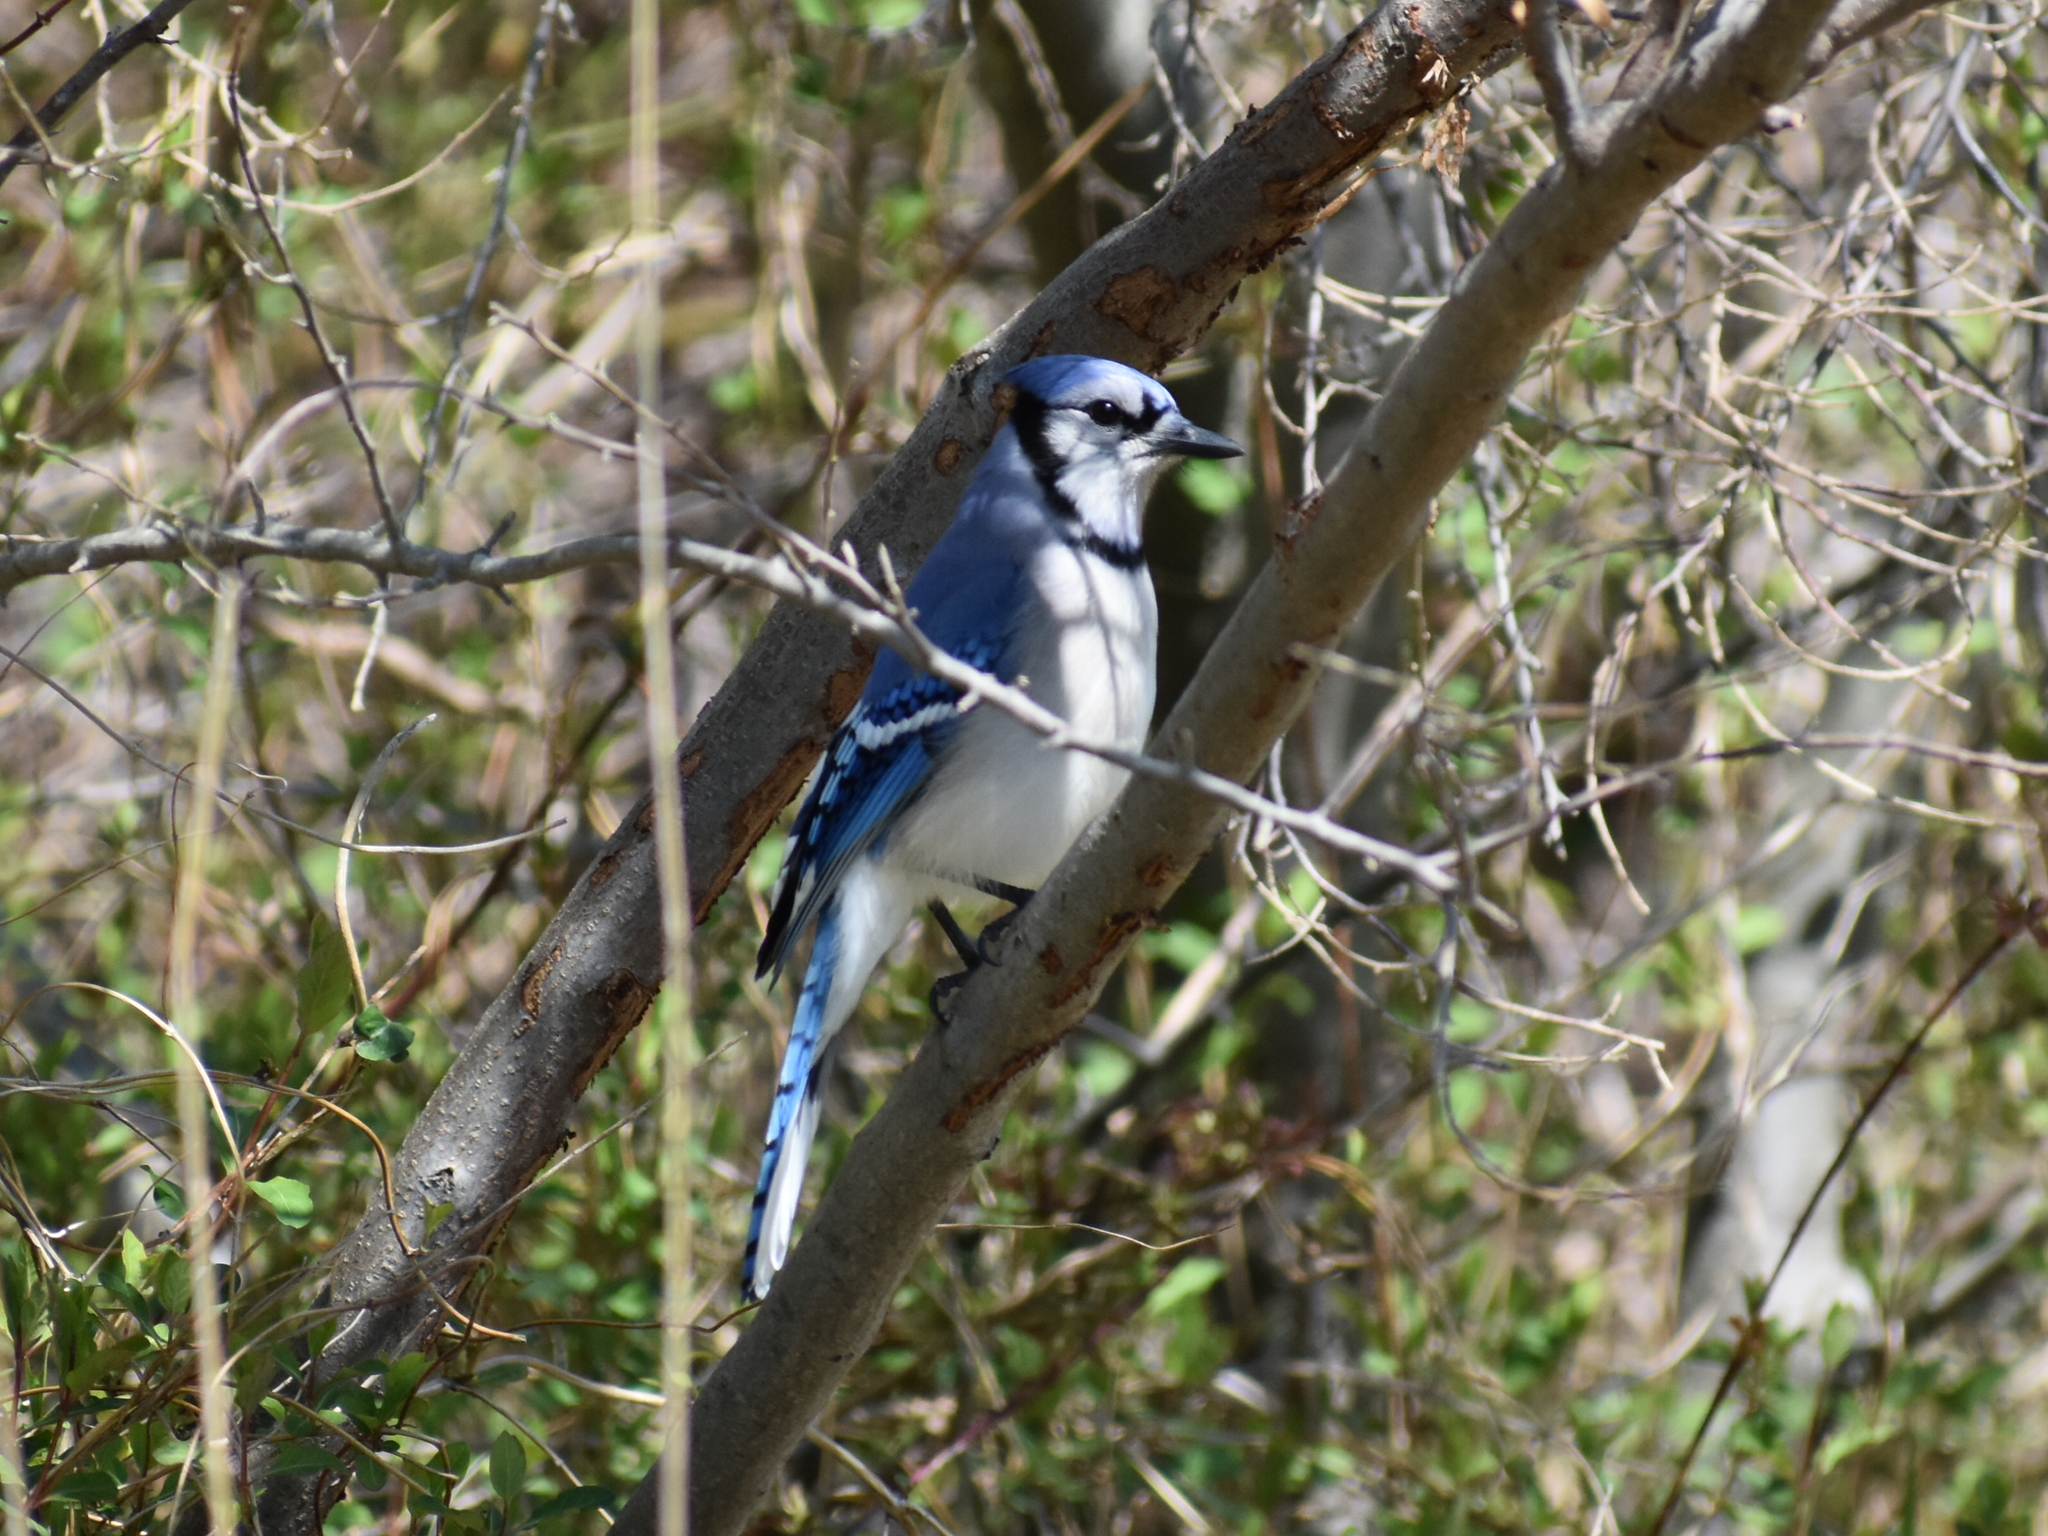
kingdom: Animalia
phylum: Chordata
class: Aves
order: Passeriformes
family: Corvidae
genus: Cyanocitta
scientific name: Cyanocitta cristata
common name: Blue jay
